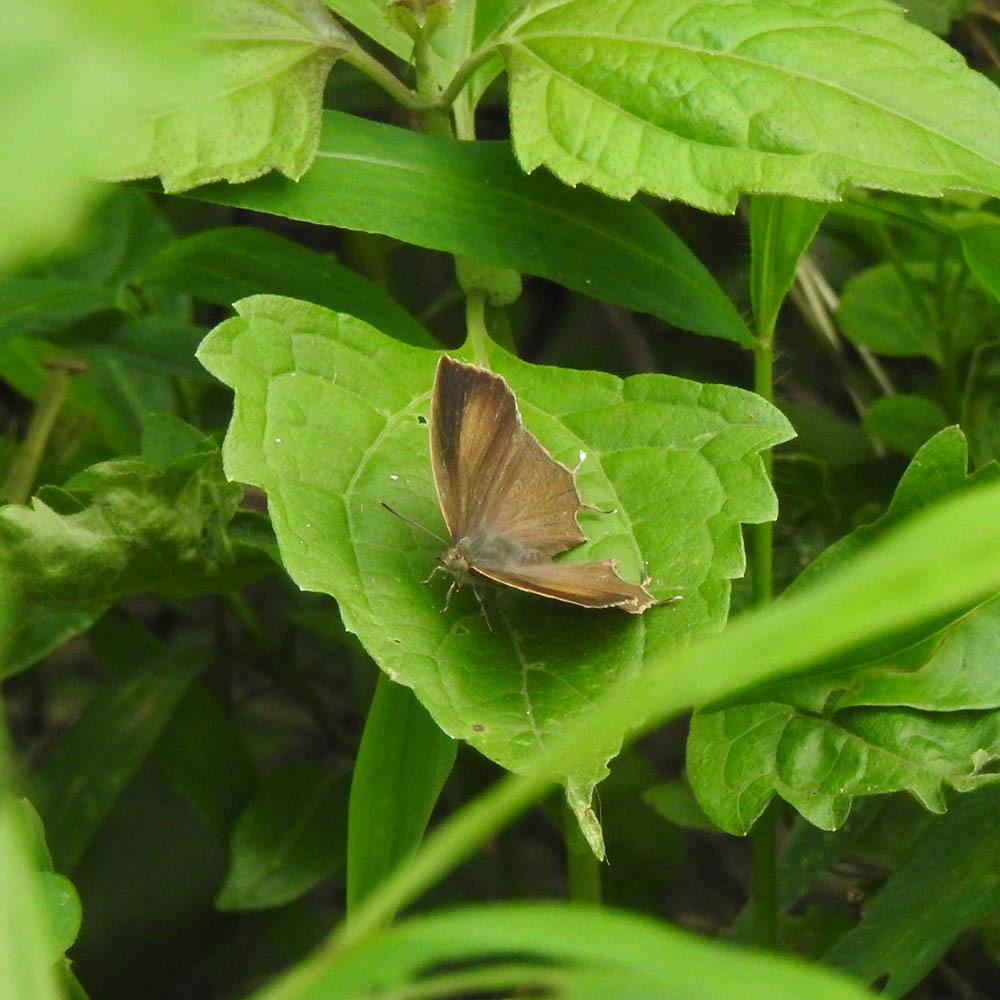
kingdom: Animalia
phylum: Arthropoda
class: Insecta
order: Lepidoptera
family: Lycaenidae
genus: Surendra
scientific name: Surendra quercetorum
